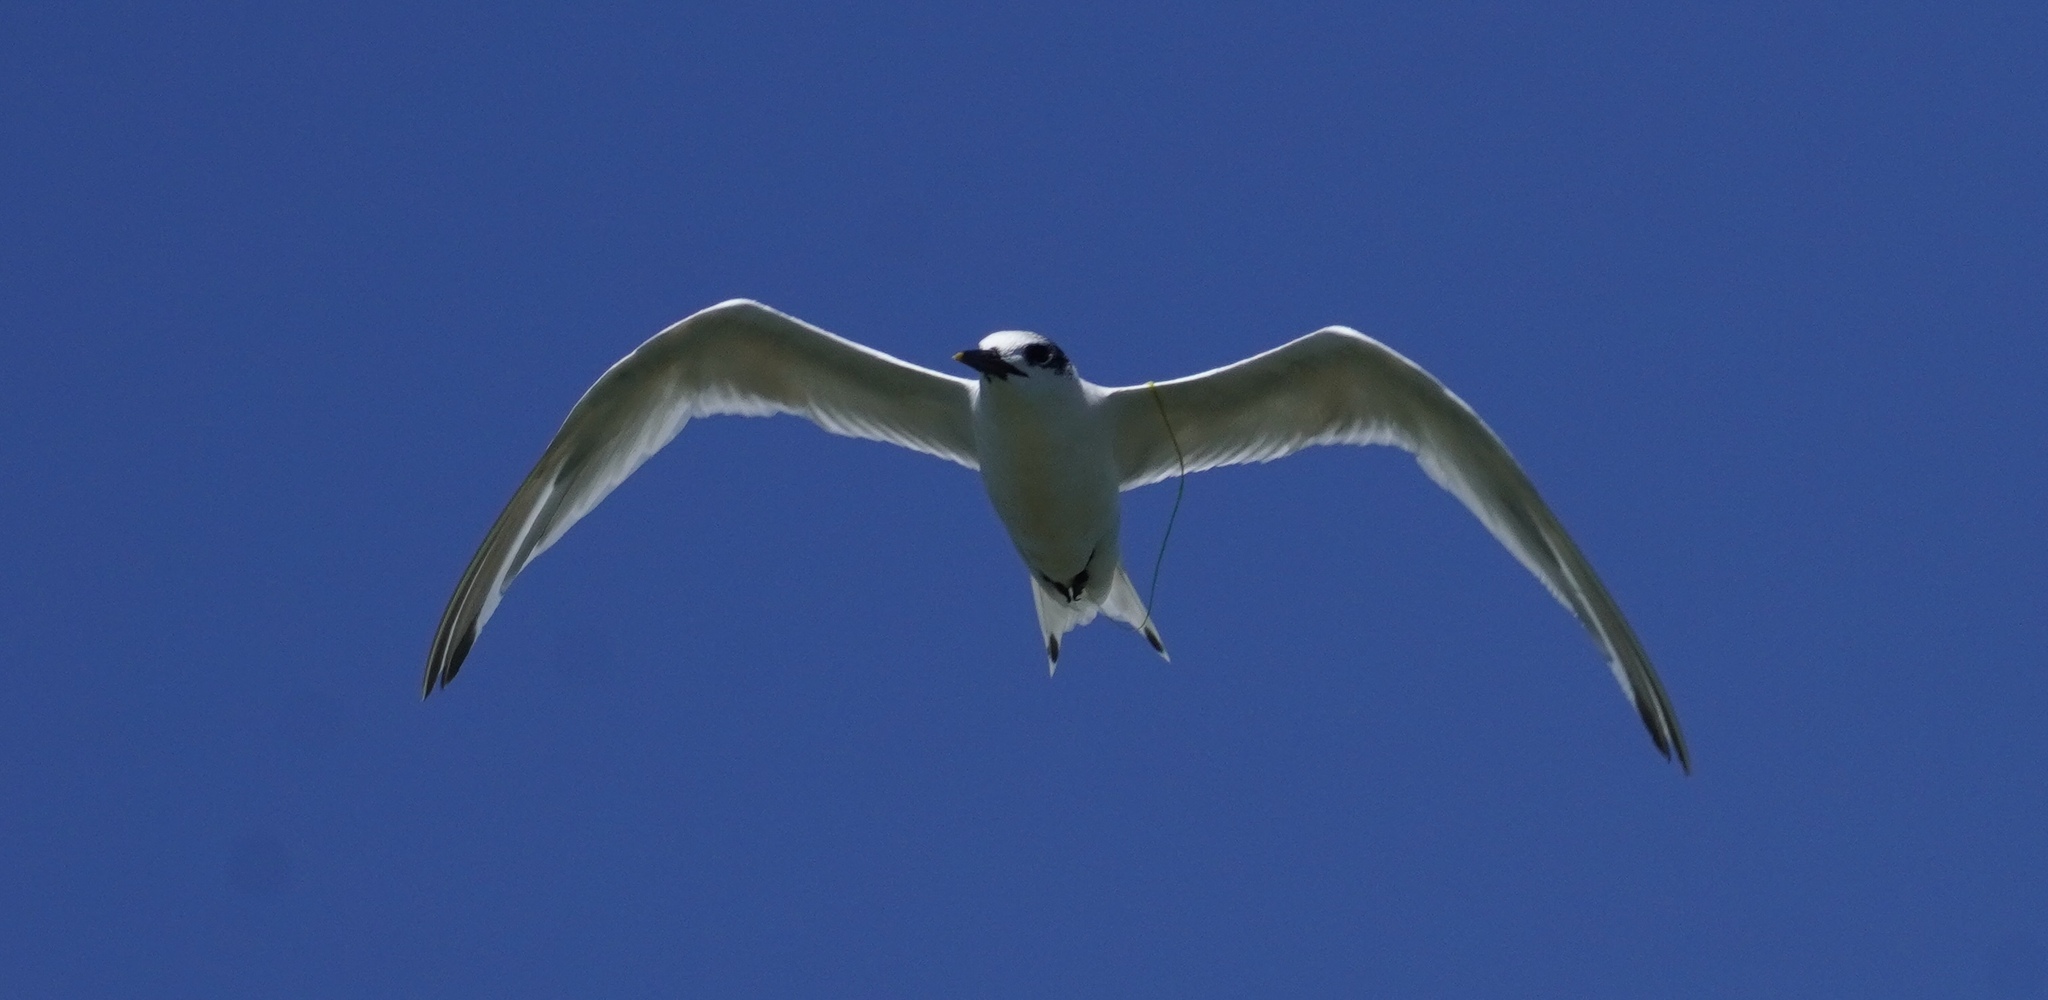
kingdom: Animalia
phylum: Chordata
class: Aves
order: Charadriiformes
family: Laridae
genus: Thalasseus
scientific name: Thalasseus sandvicensis
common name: Sandwich tern
